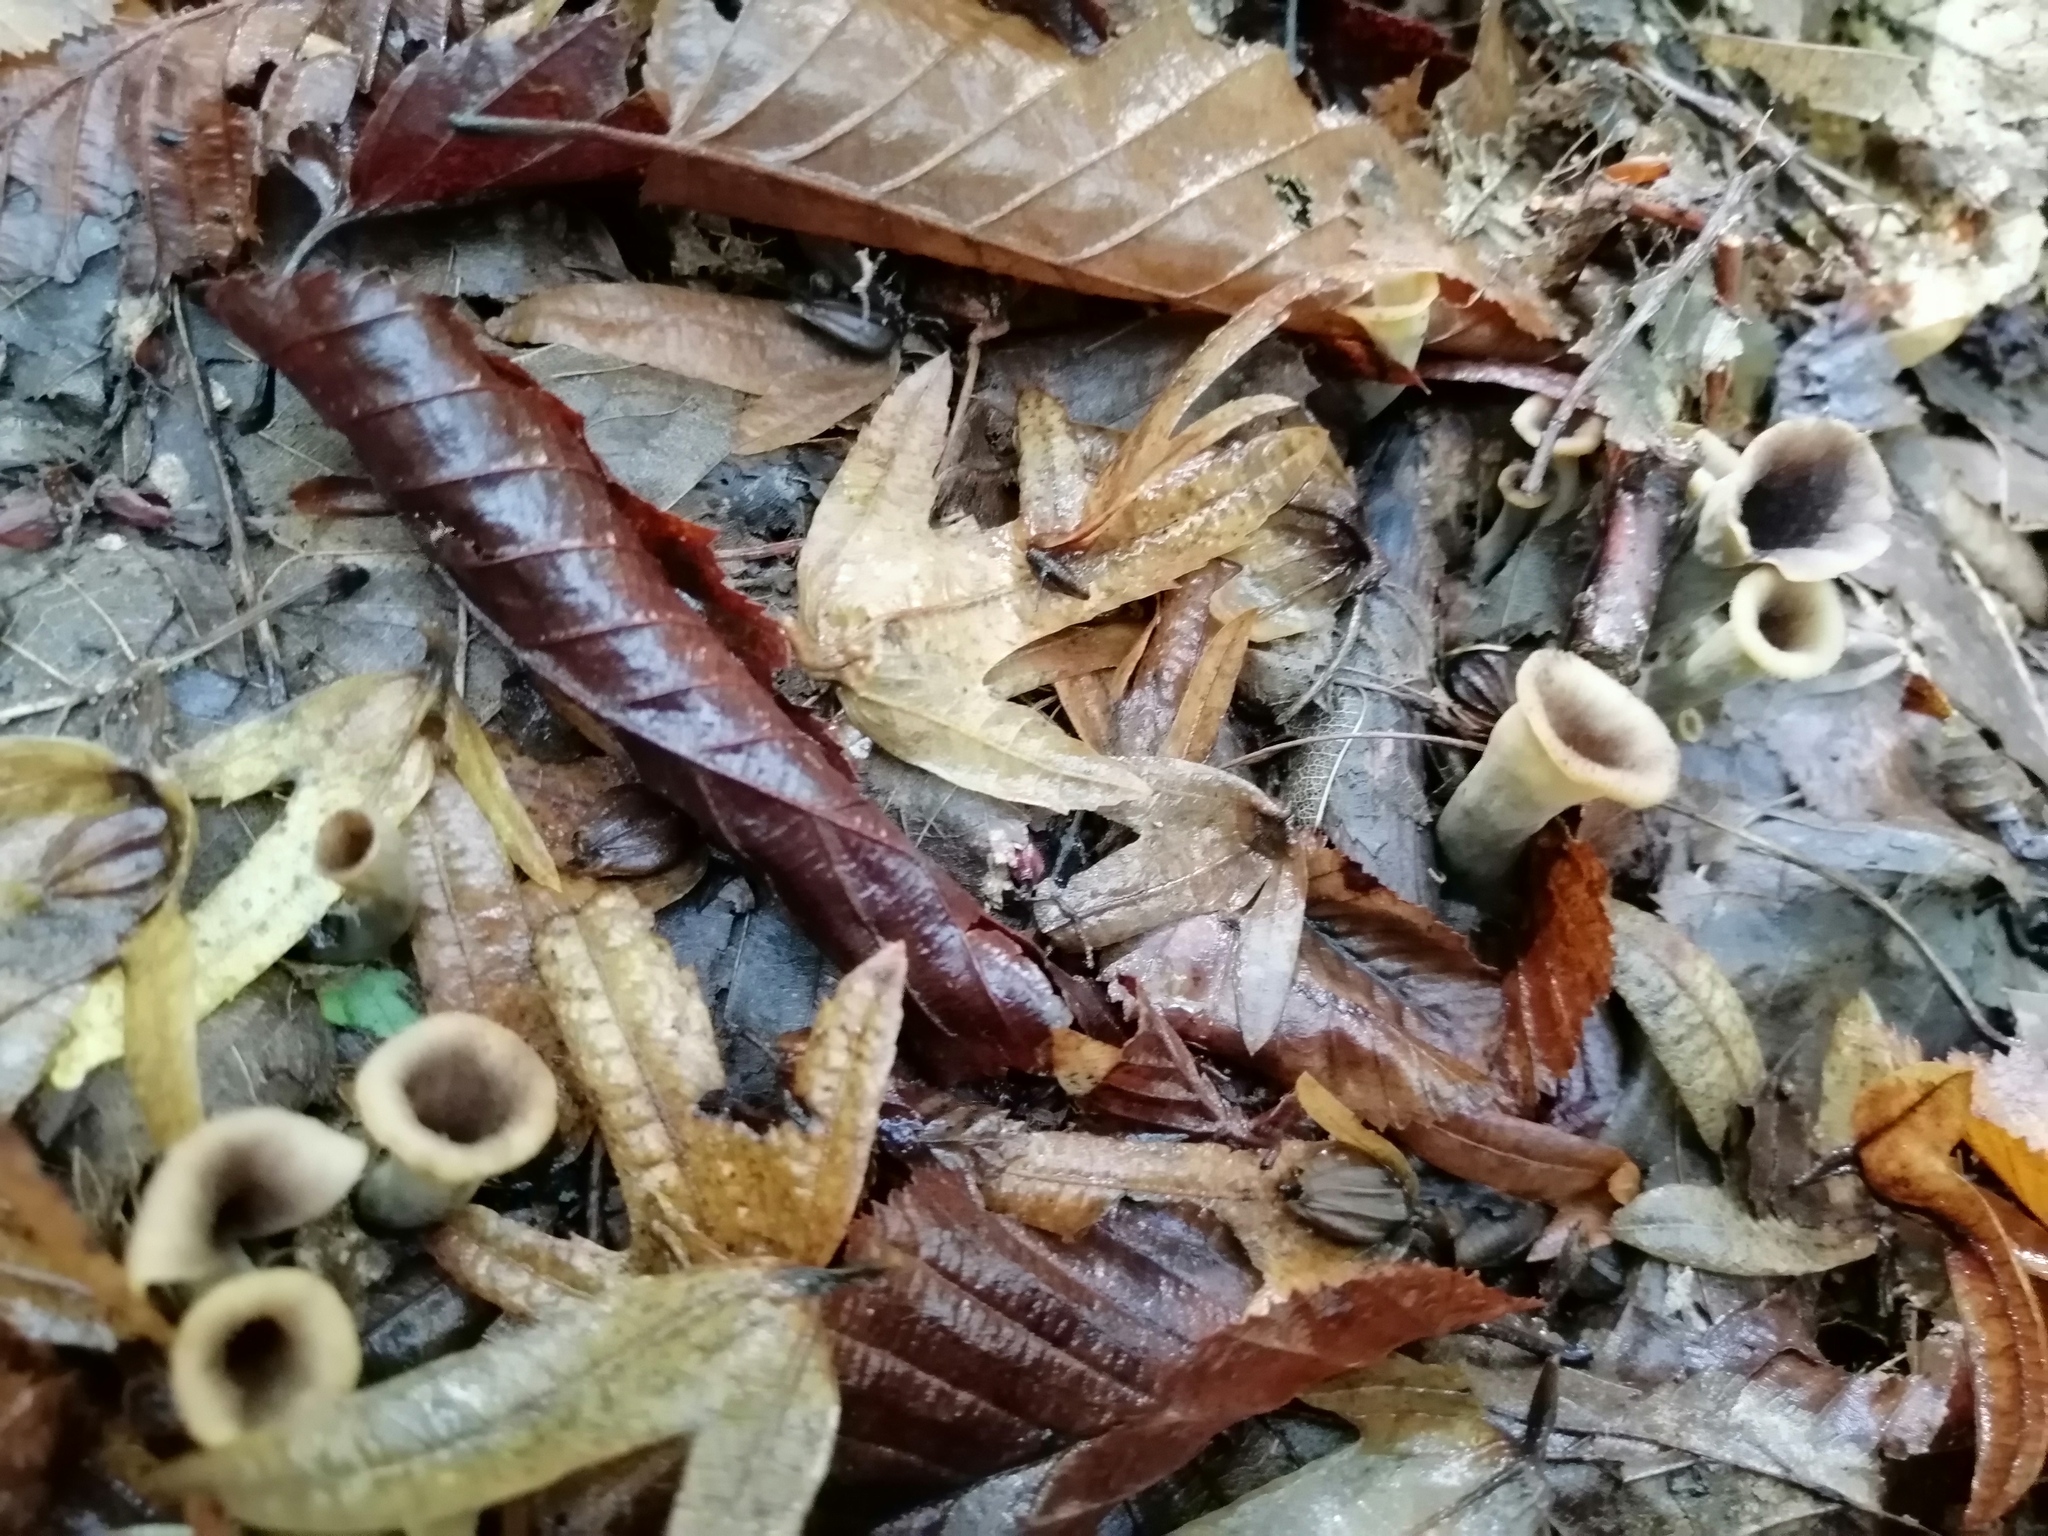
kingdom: Fungi
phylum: Basidiomycota
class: Agaricomycetes
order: Cantharellales
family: Hydnaceae
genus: Craterellus
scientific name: Craterellus cornucopioides
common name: Horn of plenty
